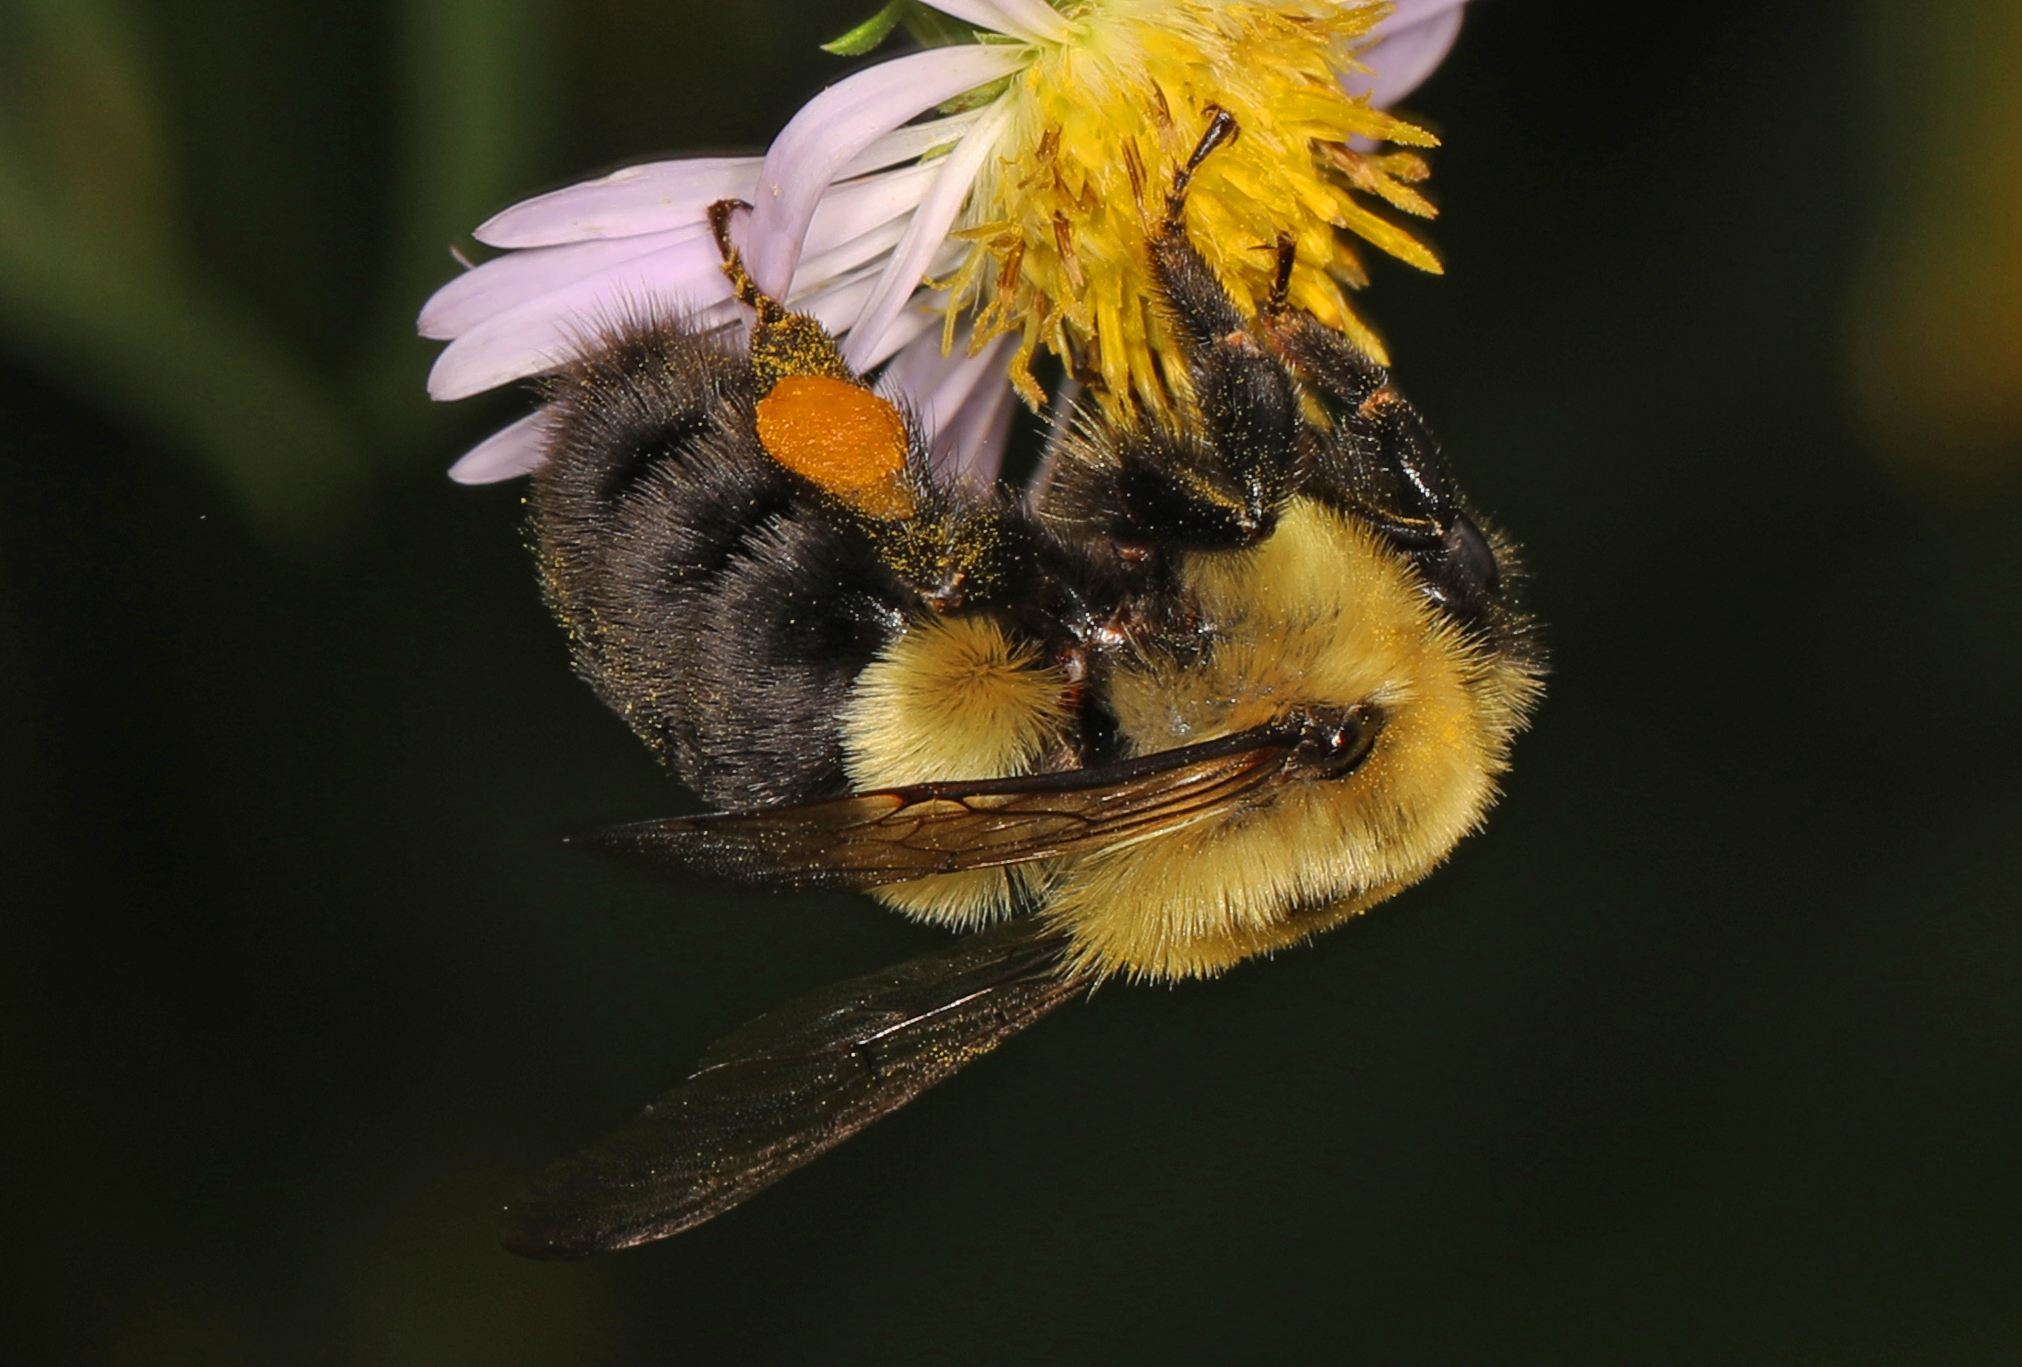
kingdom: Animalia
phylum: Arthropoda
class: Insecta
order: Hymenoptera
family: Apidae
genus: Bombus
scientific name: Bombus impatiens
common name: Common eastern bumble bee
